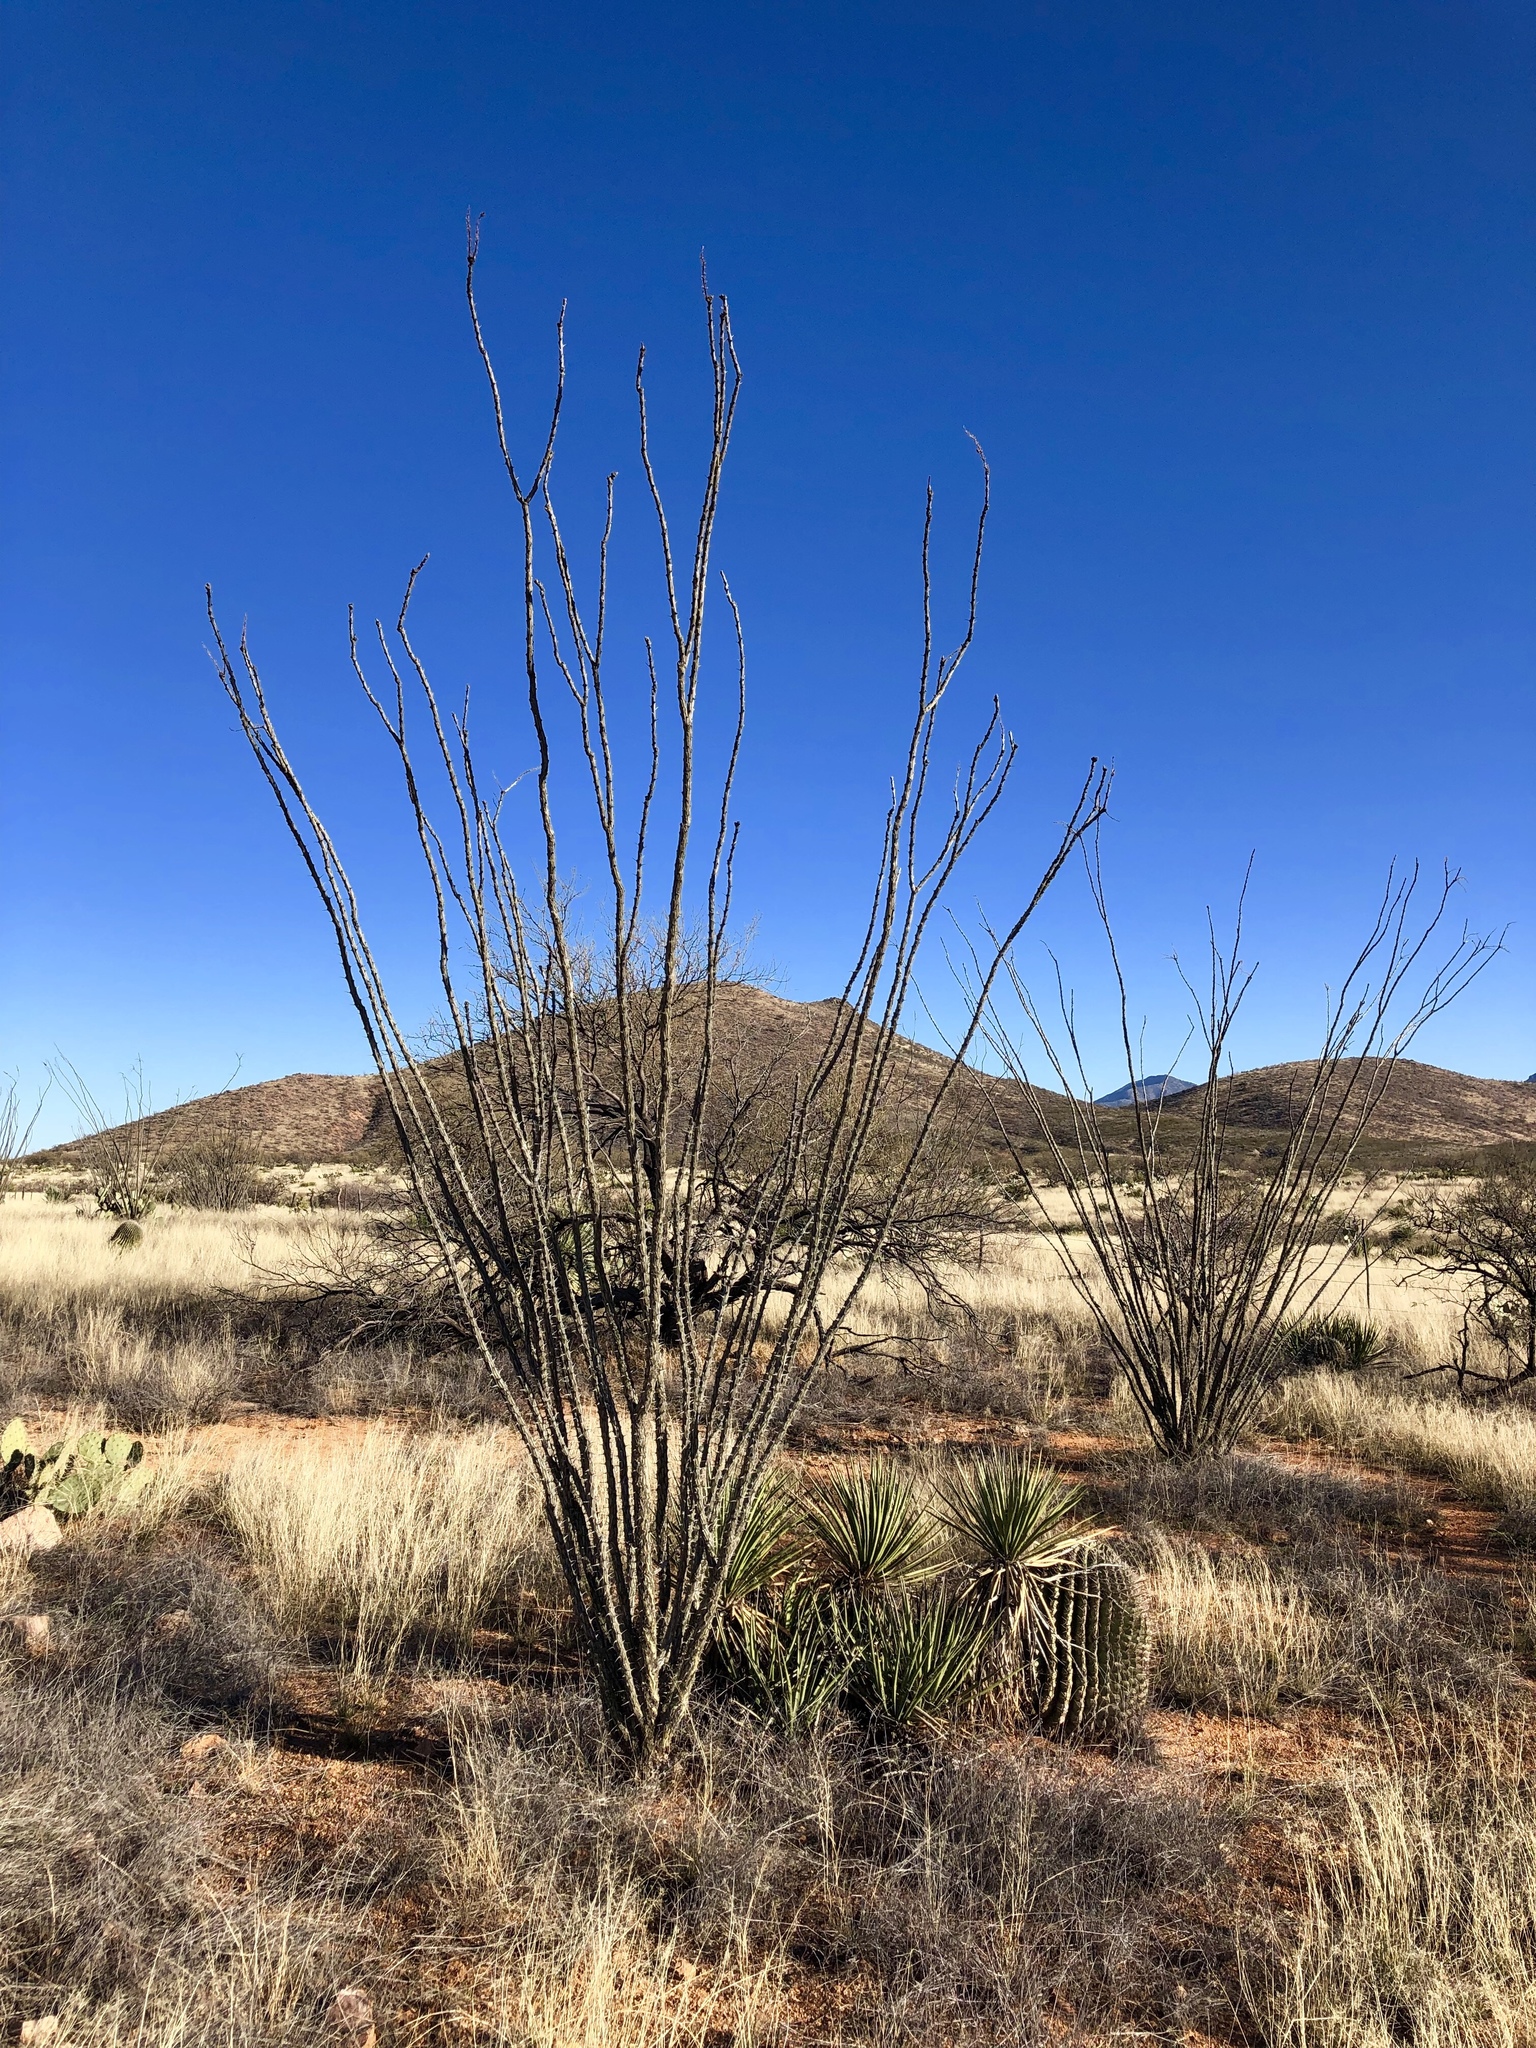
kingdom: Plantae
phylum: Tracheophyta
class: Magnoliopsida
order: Ericales
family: Fouquieriaceae
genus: Fouquieria
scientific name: Fouquieria splendens
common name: Vine-cactus
